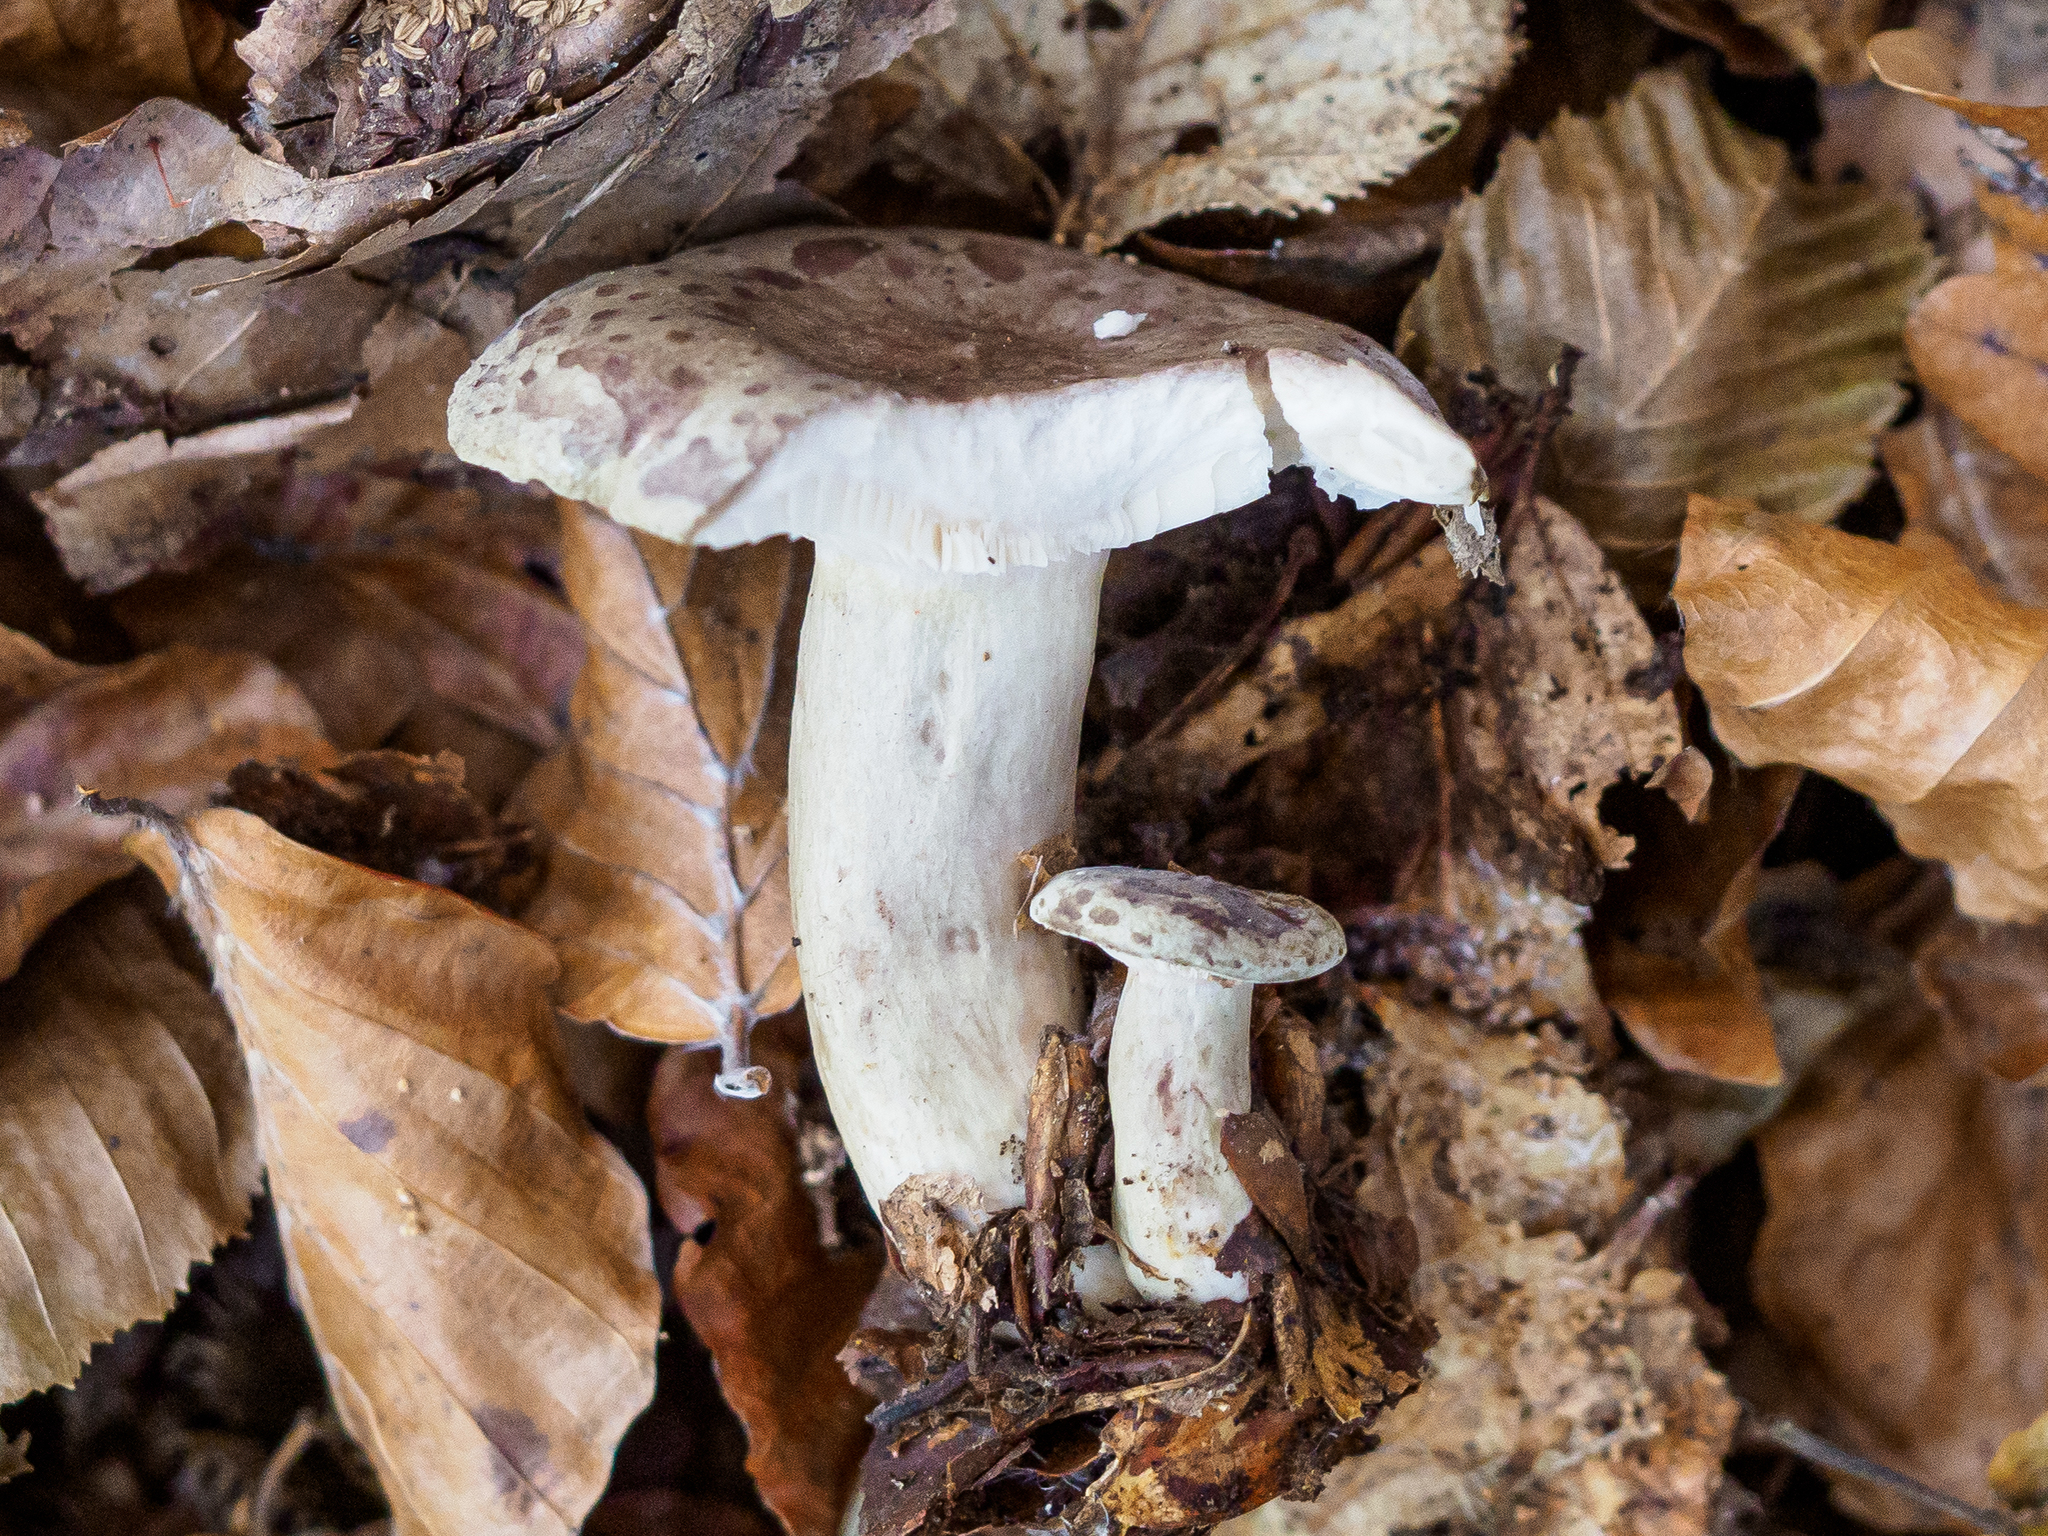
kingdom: Fungi
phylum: Basidiomycota
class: Agaricomycetes
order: Russulales
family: Russulaceae
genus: Lactarius
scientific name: Lactarius blennius
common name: Beech milkcap
